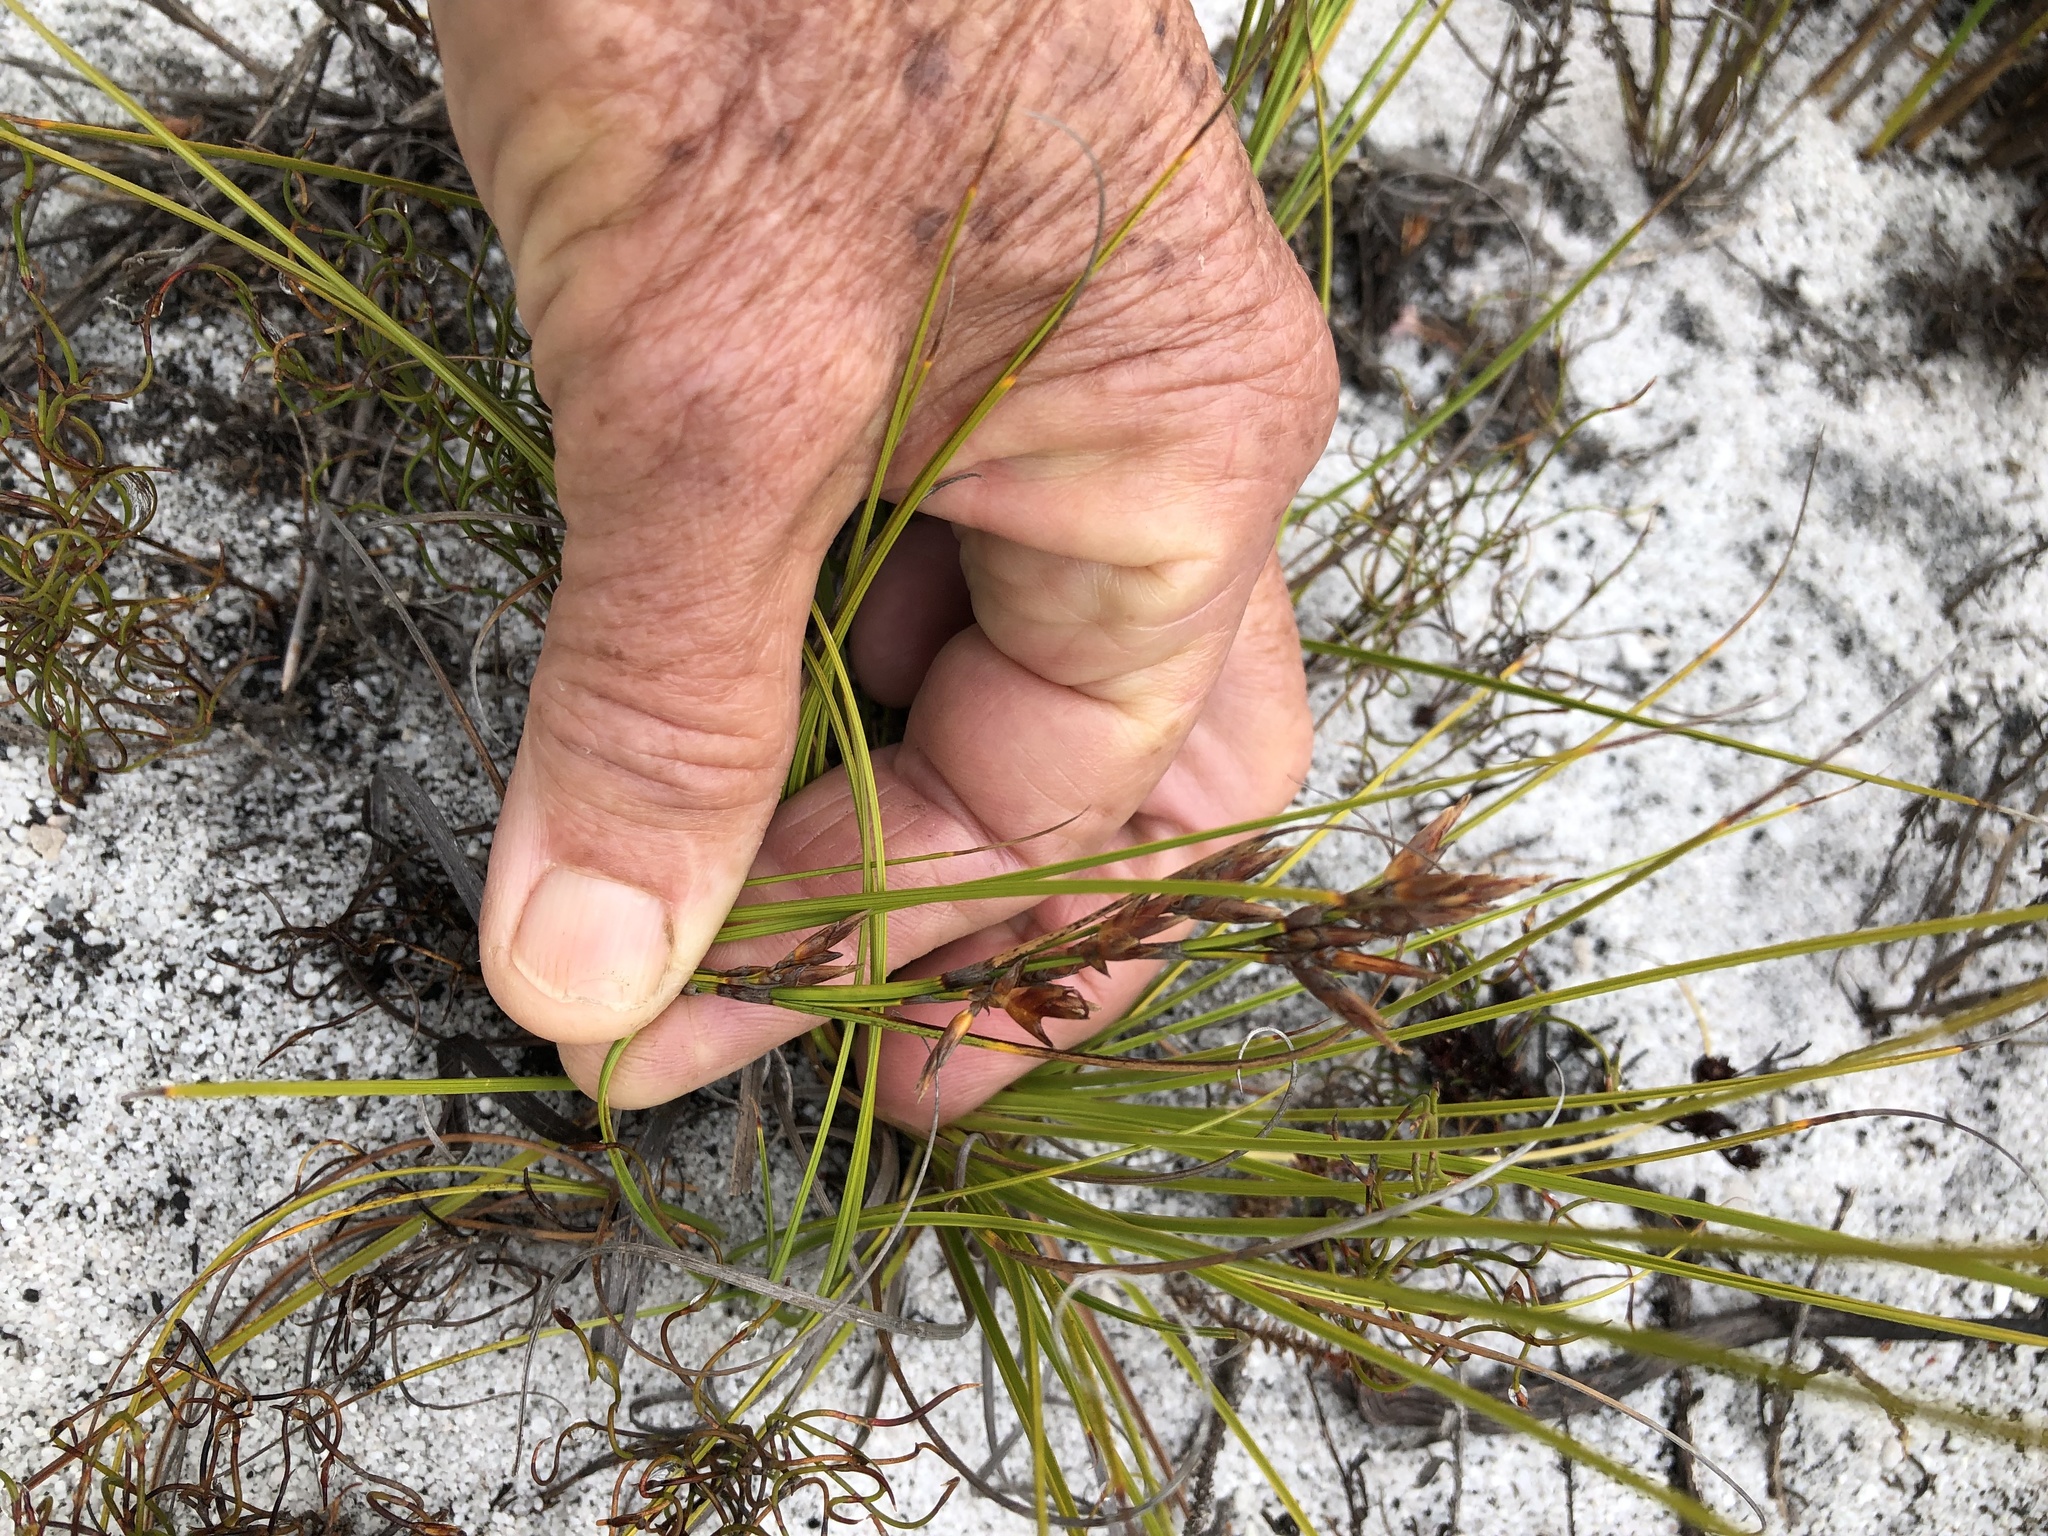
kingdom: Plantae
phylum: Tracheophyta
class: Liliopsida
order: Poales
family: Cyperaceae
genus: Tetraria
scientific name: Tetraria microstachys
